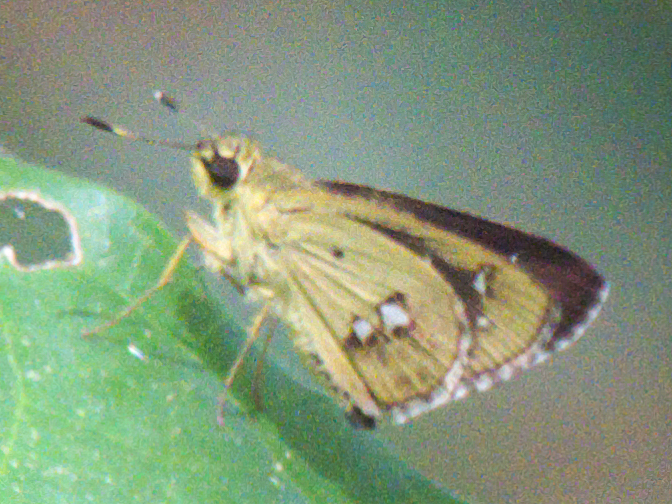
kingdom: Animalia
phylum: Arthropoda
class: Insecta
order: Lepidoptera
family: Hesperiidae
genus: Scobura
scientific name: Scobura isota
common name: Swinhoe's forest bob
